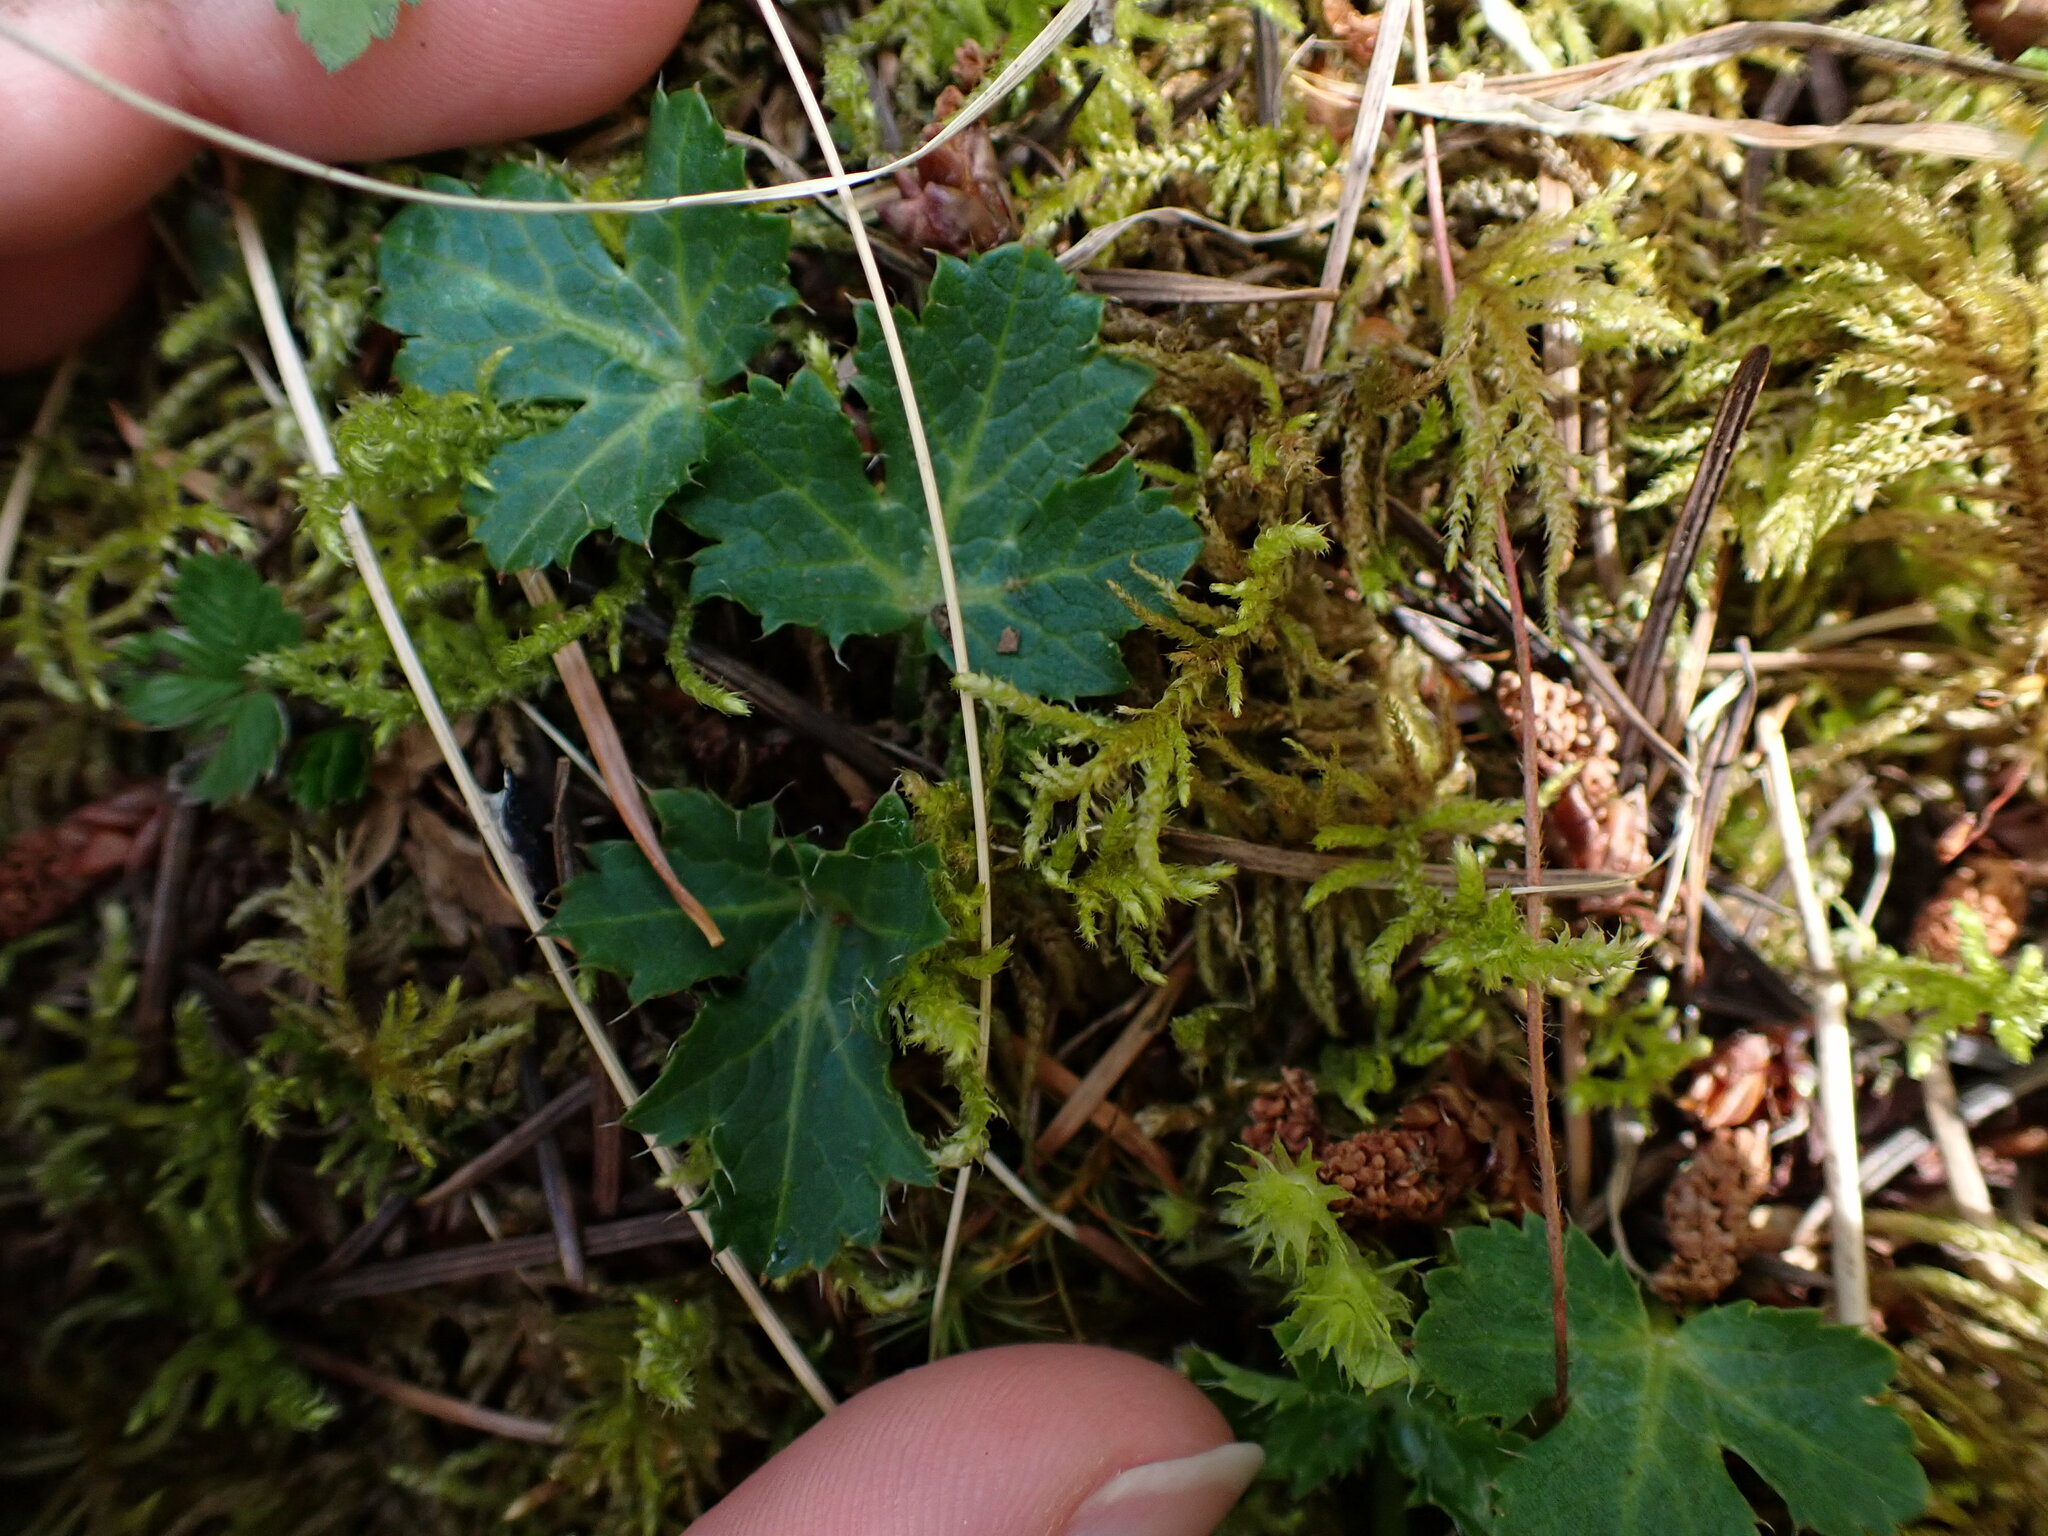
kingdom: Plantae
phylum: Tracheophyta
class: Magnoliopsida
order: Apiales
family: Apiaceae
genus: Sanicula
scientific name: Sanicula crassicaulis
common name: Western snakeroot
